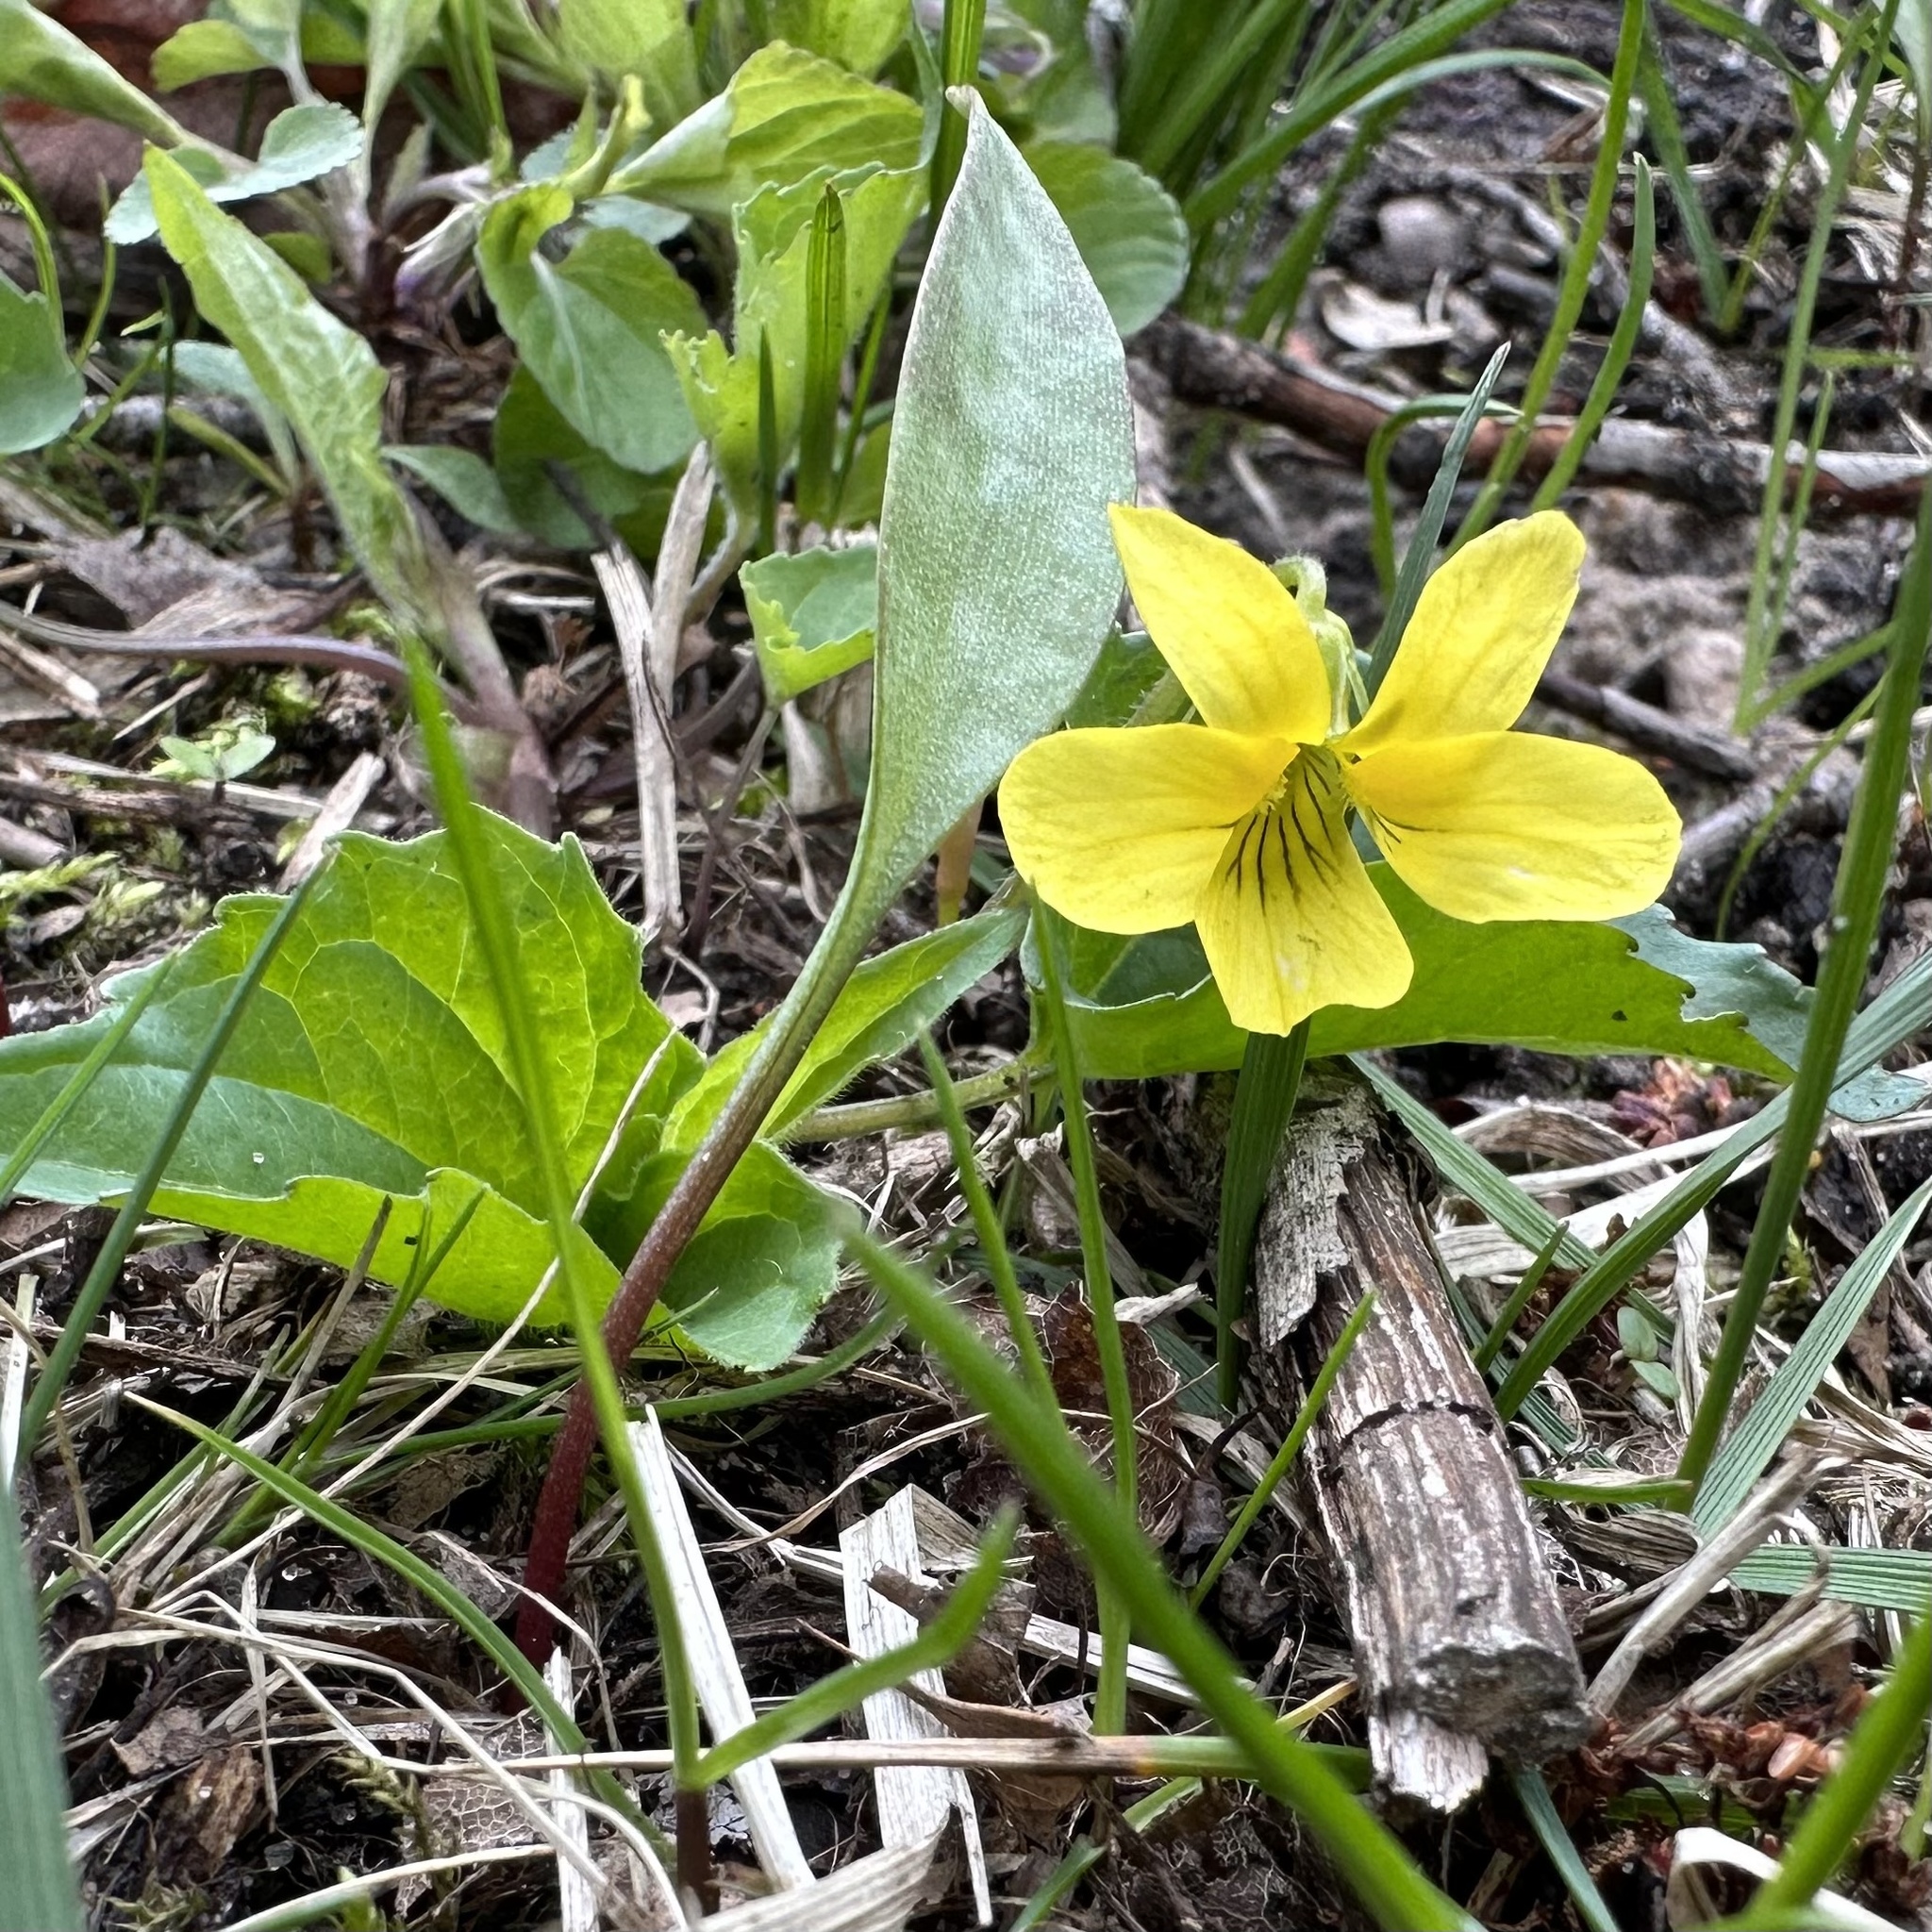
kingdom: Plantae
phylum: Tracheophyta
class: Magnoliopsida
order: Malpighiales
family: Violaceae
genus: Viola
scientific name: Viola eriocarpa
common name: Smooth yellow violet
